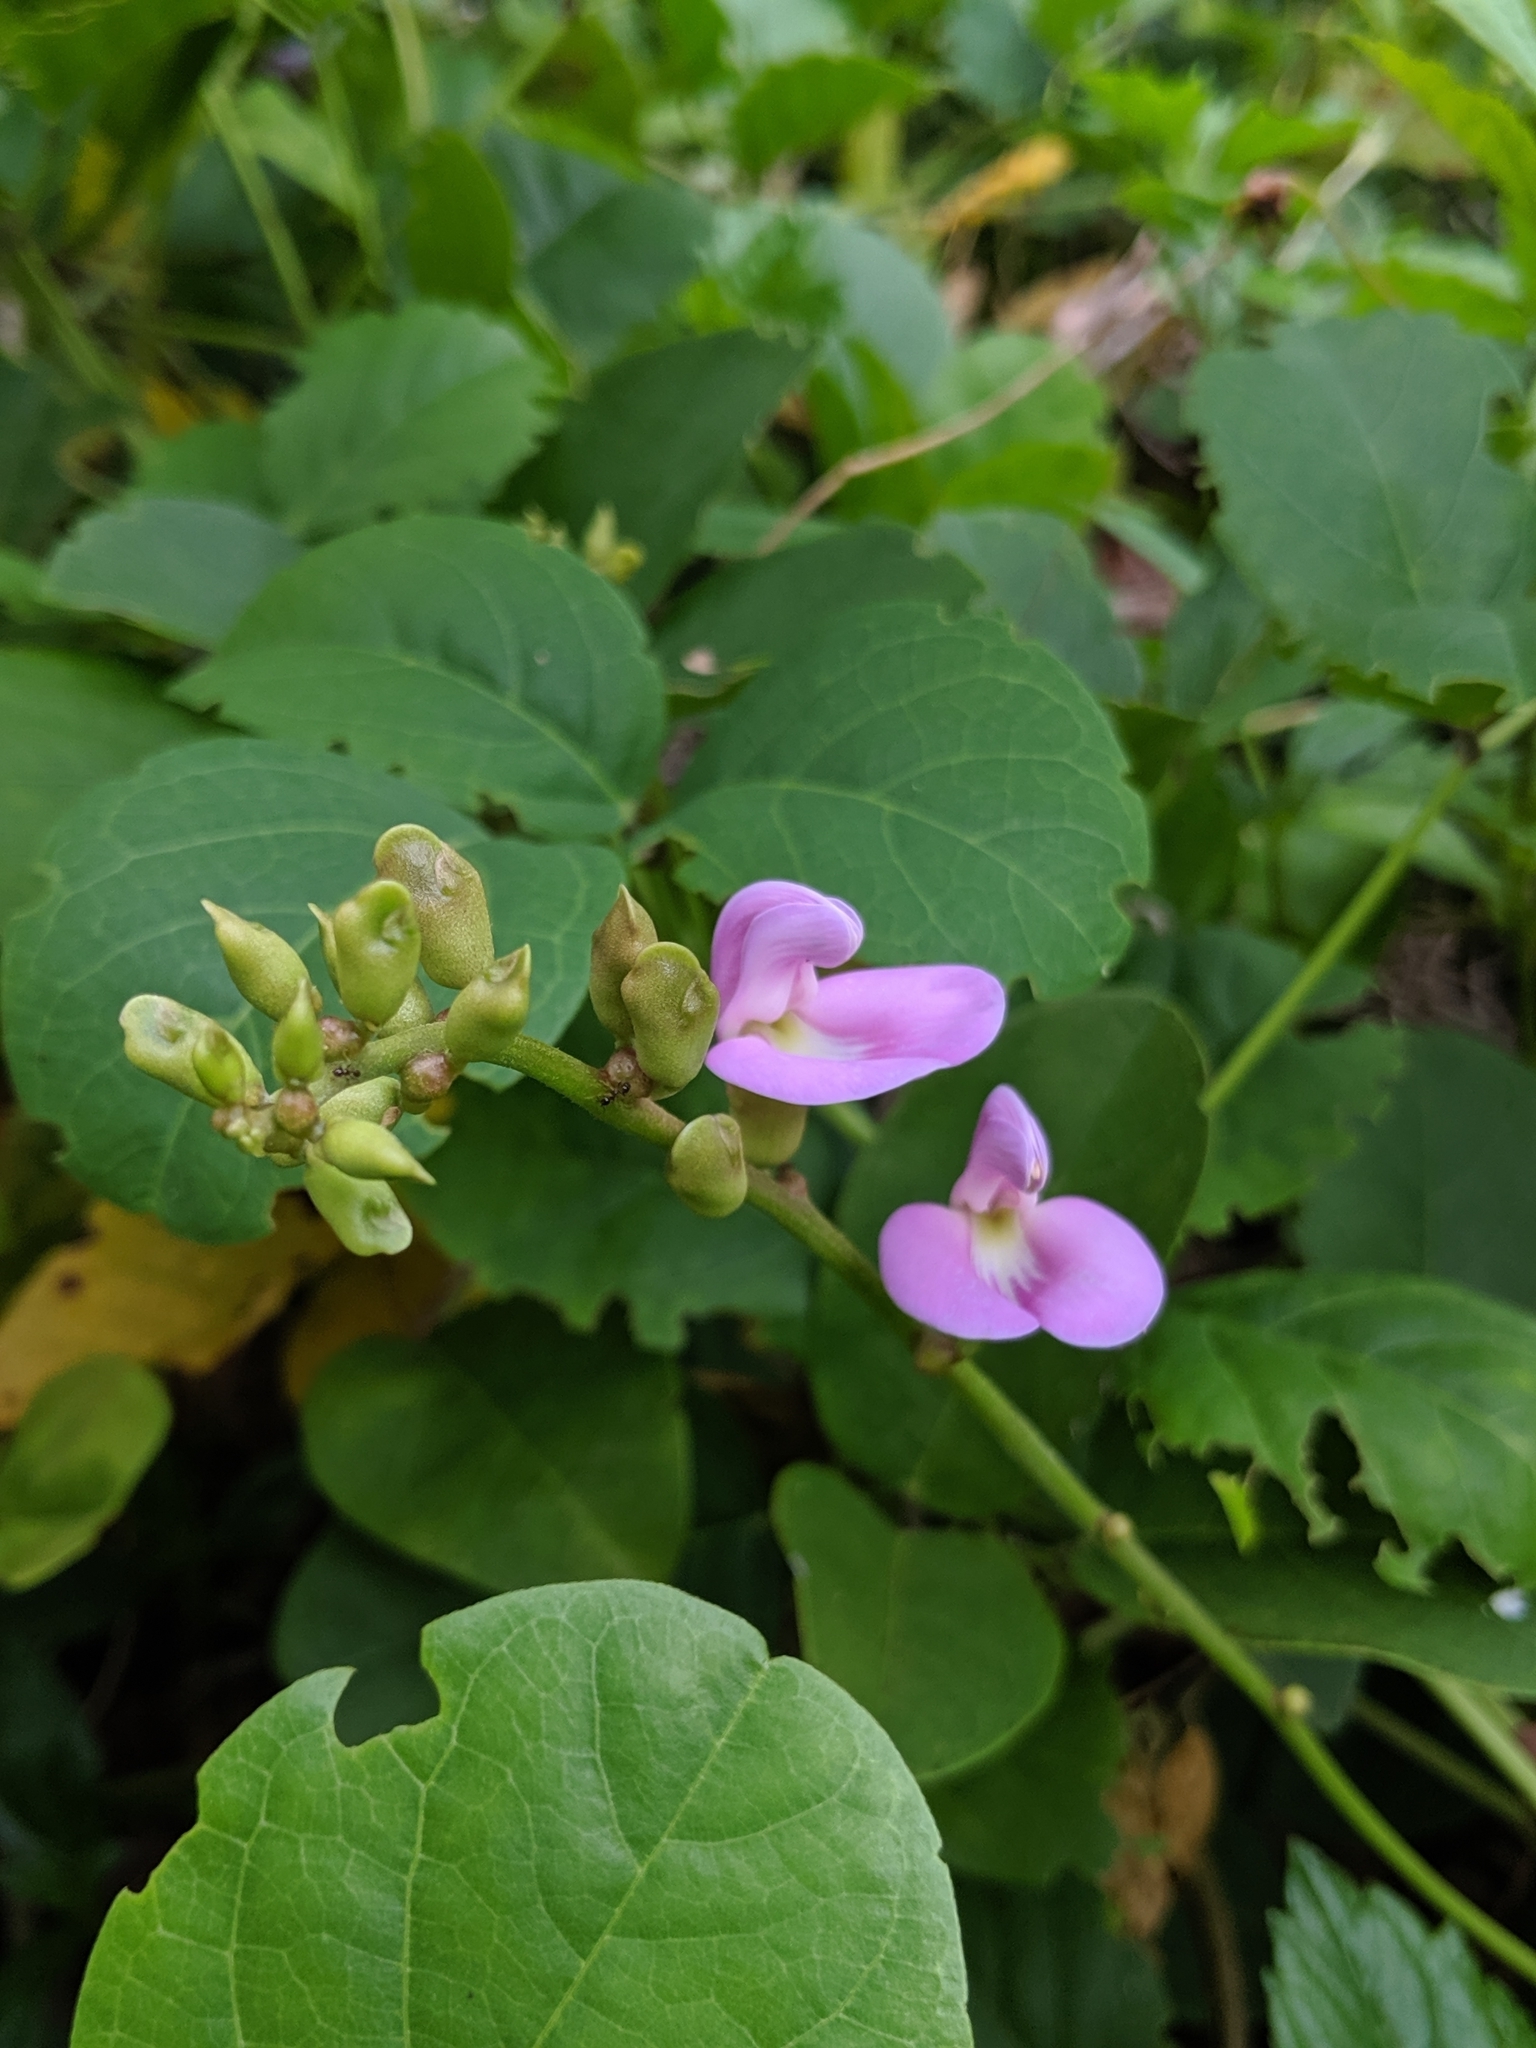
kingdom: Plantae
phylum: Tracheophyta
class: Magnoliopsida
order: Fabales
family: Fabaceae
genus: Canavalia
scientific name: Canavalia rosea
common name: Beach-bean
